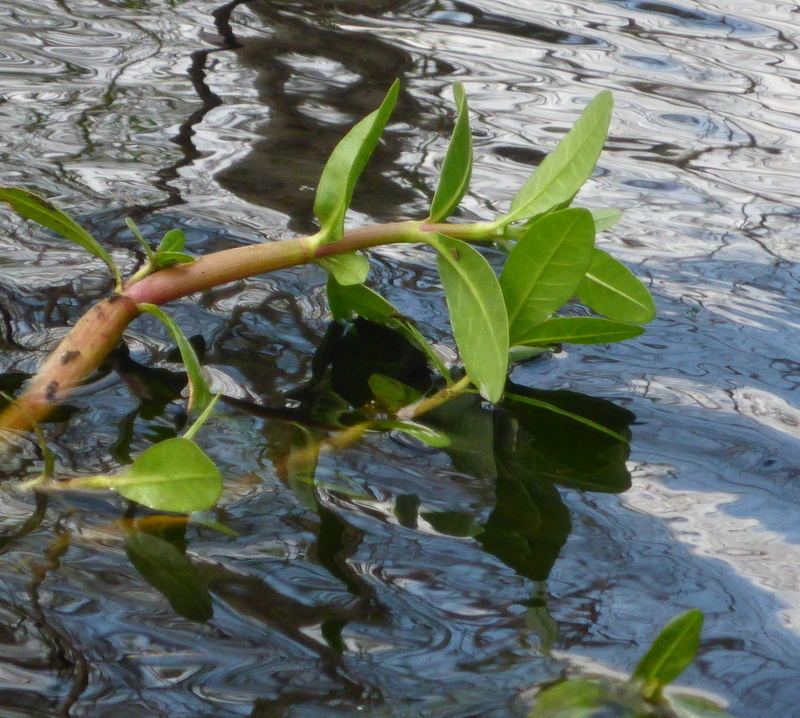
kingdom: Plantae
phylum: Tracheophyta
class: Magnoliopsida
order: Caryophyllales
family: Amaranthaceae
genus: Alternanthera
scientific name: Alternanthera philoxeroides
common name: Alligatorweed
